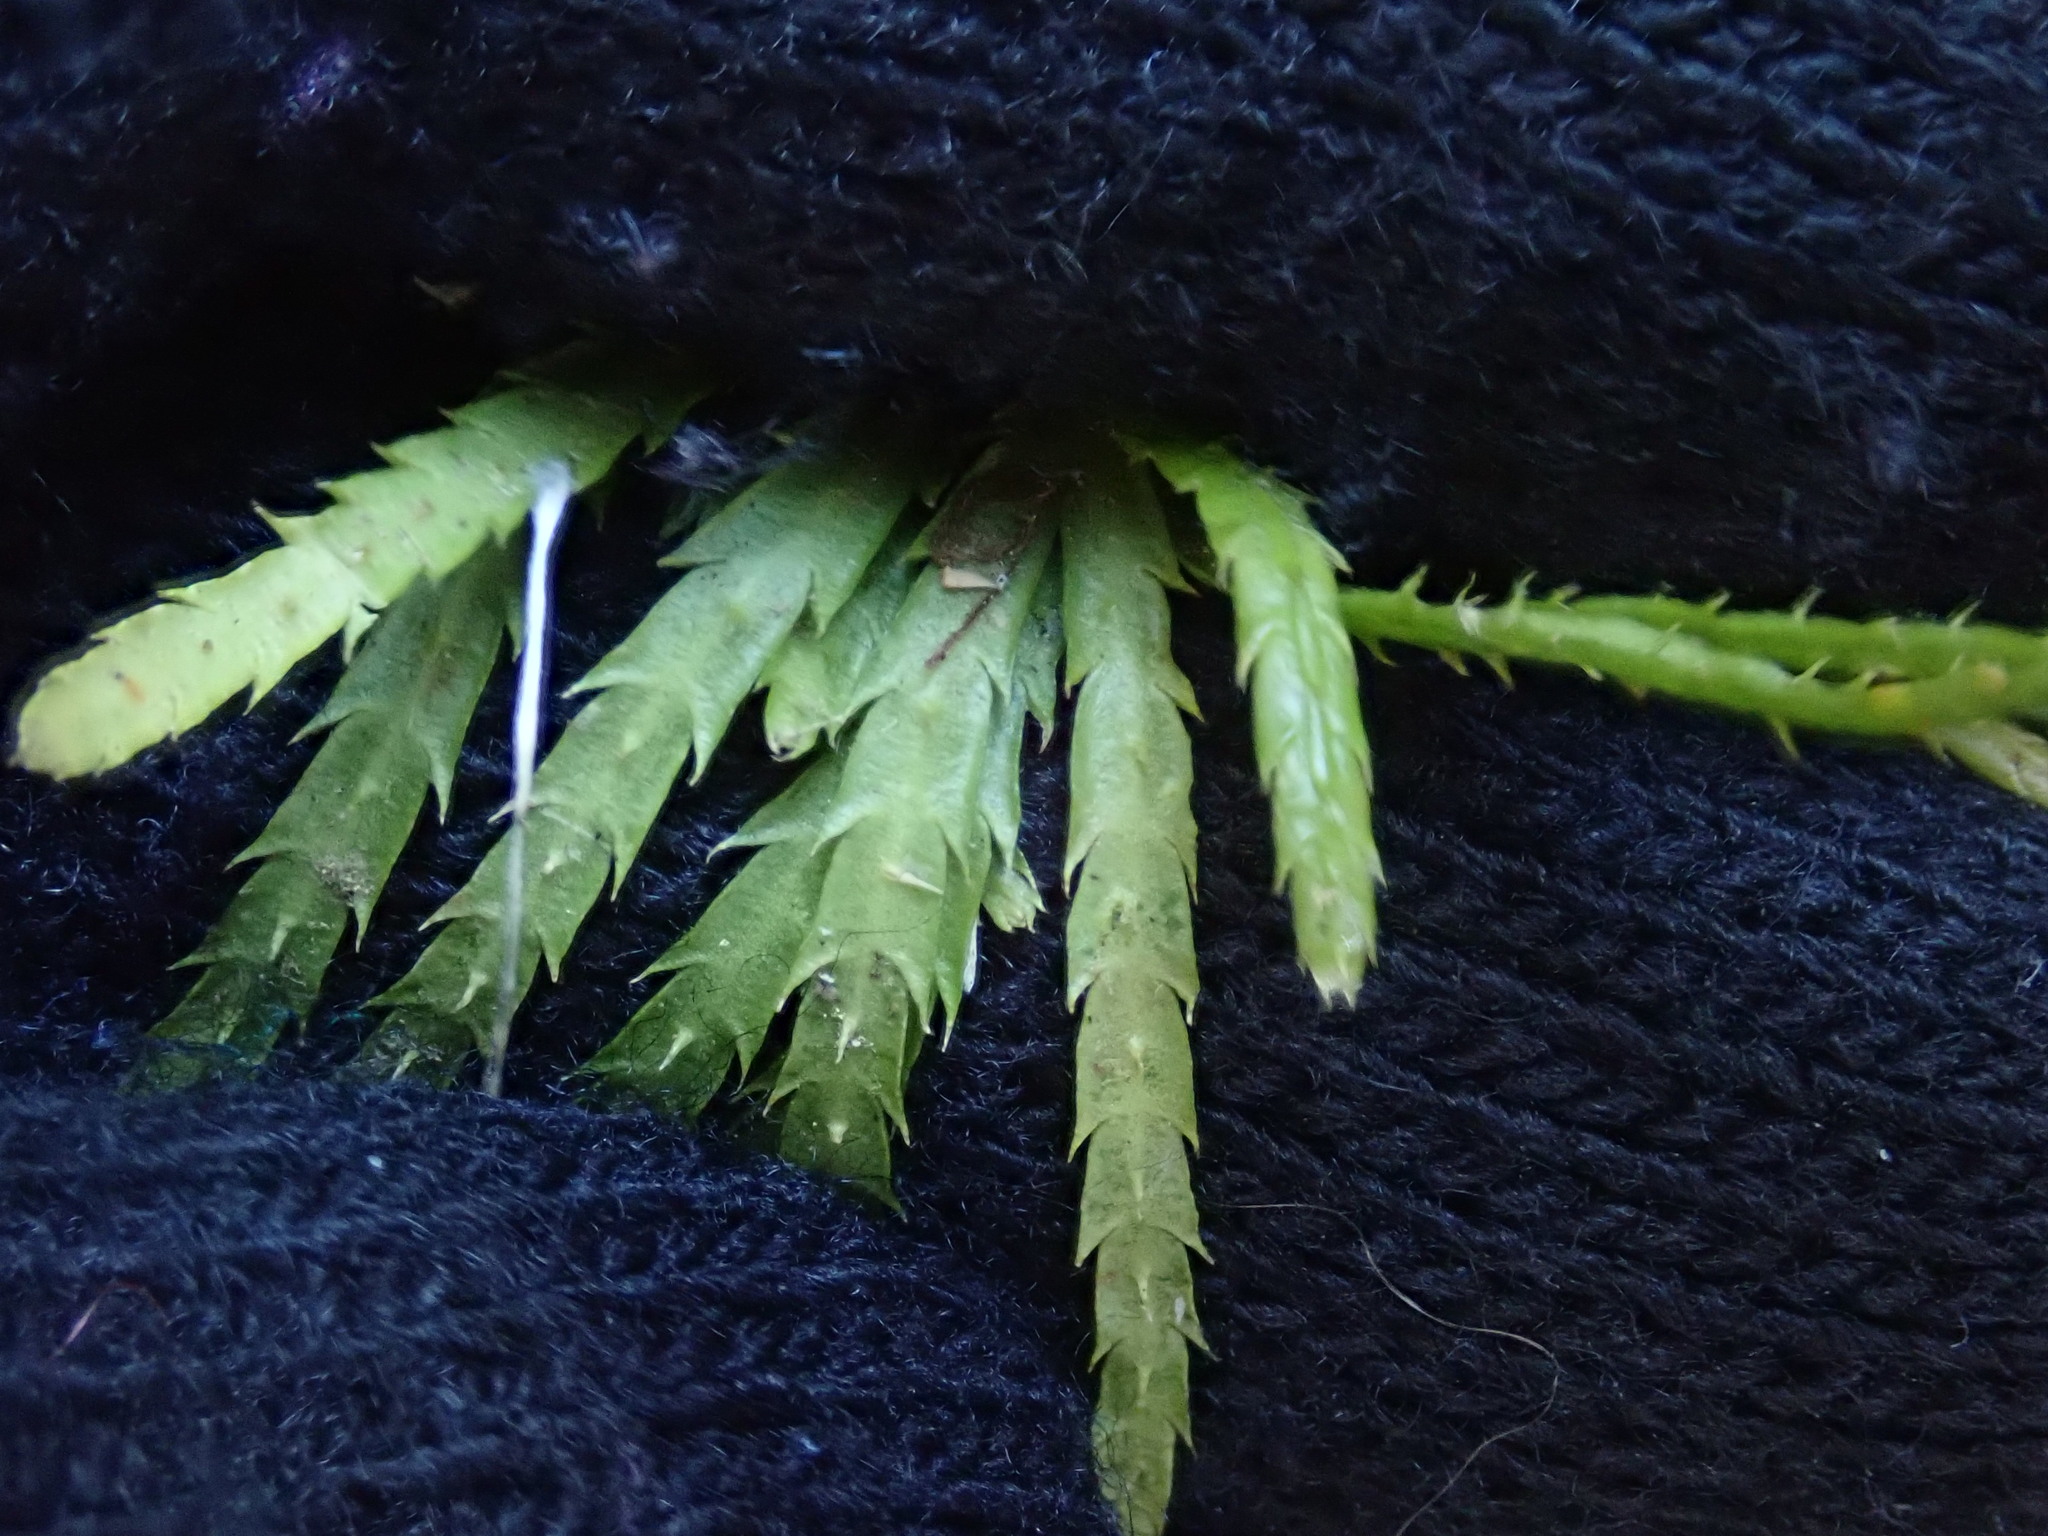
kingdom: Plantae
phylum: Tracheophyta
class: Lycopodiopsida
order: Lycopodiales
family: Lycopodiaceae
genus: Diphasiastrum
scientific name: Diphasiastrum digitatum
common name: Southern running-pine
